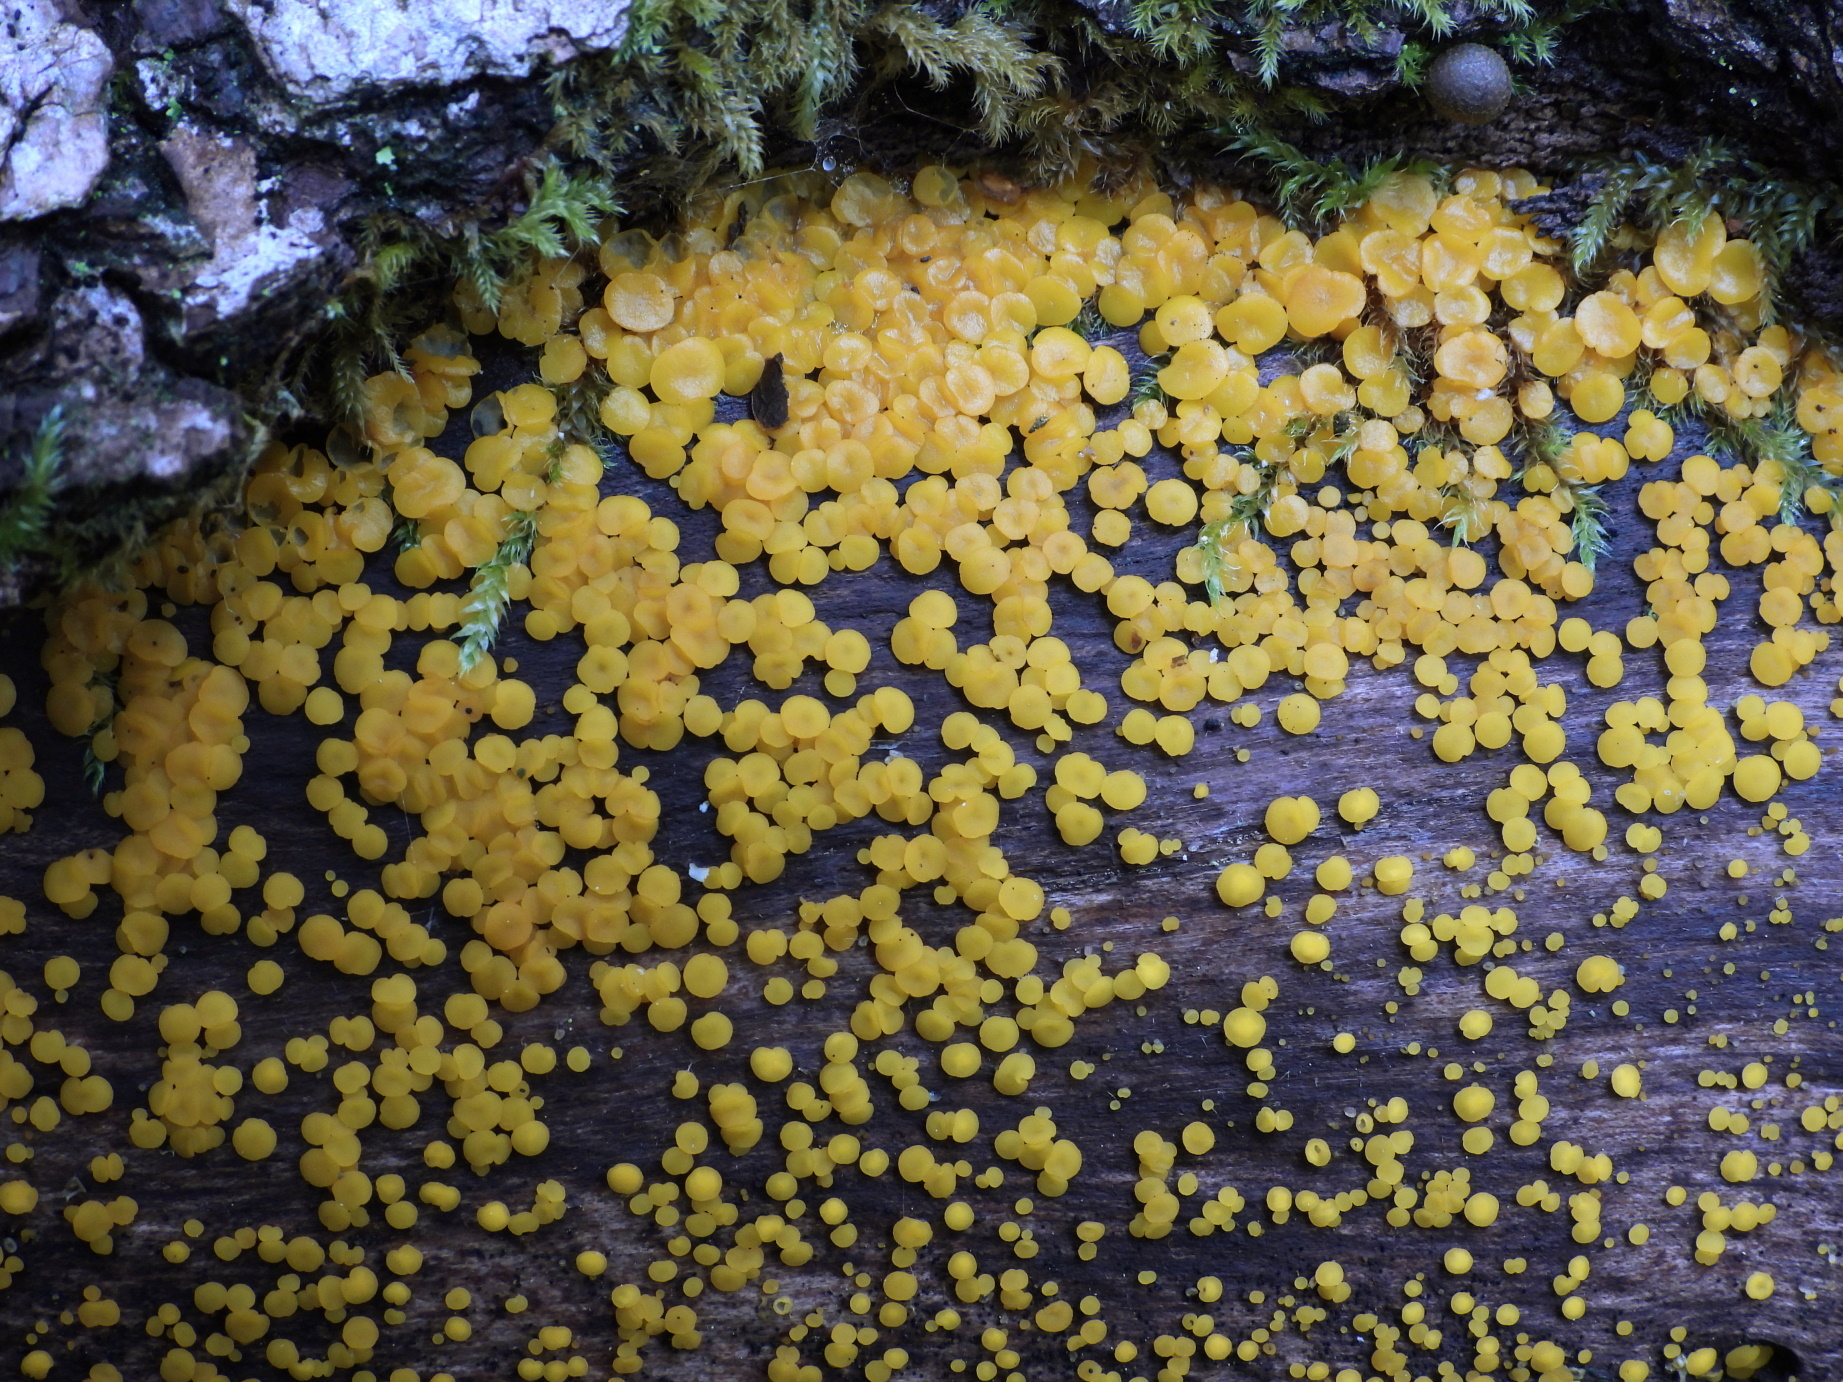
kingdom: Fungi
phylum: Ascomycota
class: Leotiomycetes
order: Helotiales
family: Pezizellaceae
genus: Calycina
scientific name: Calycina citrina
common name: Yellow fairy cups
